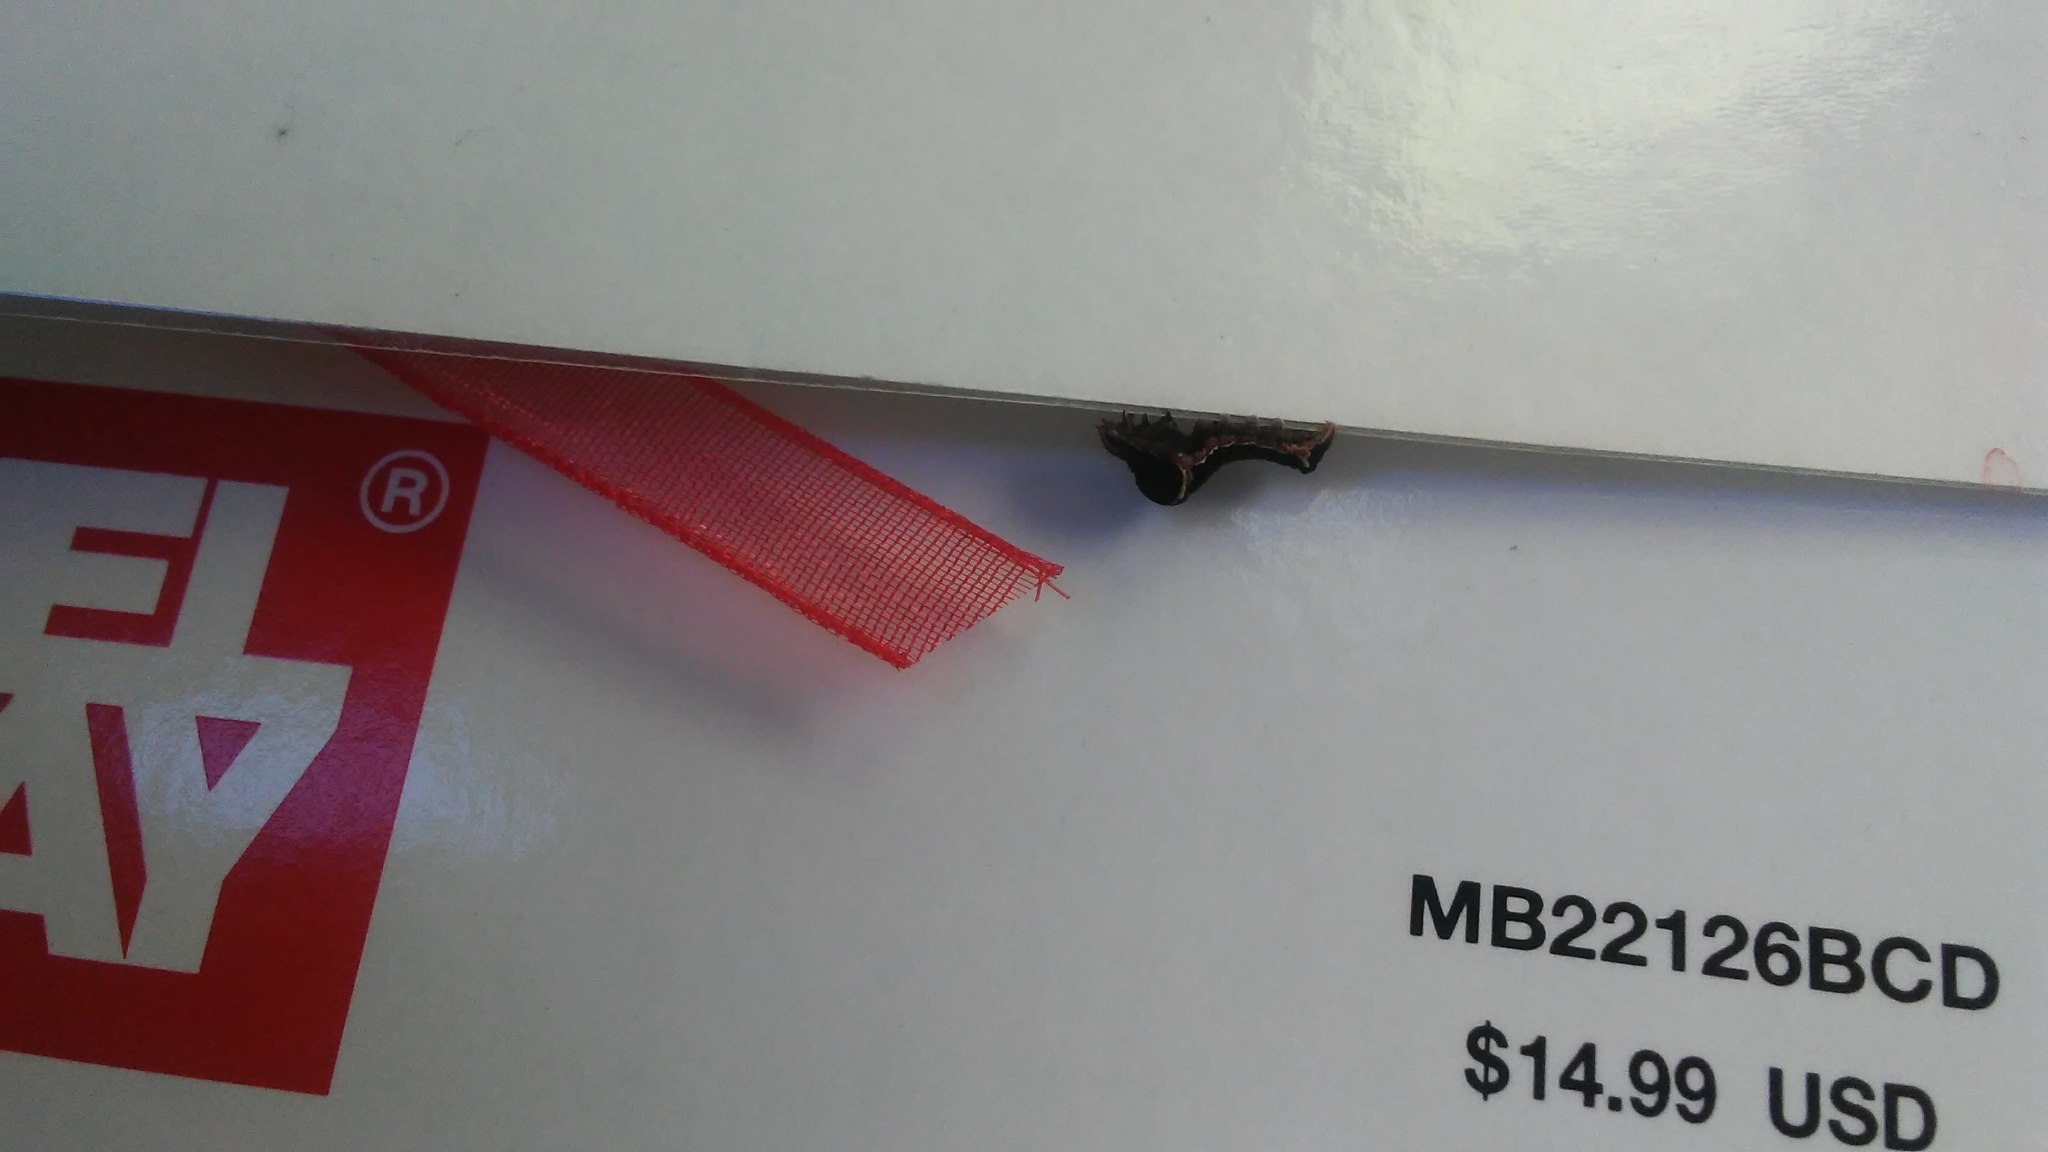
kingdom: Animalia
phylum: Arthropoda
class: Insecta
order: Lepidoptera
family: Noctuidae
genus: Galgula
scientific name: Galgula partita
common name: Wedgeling
